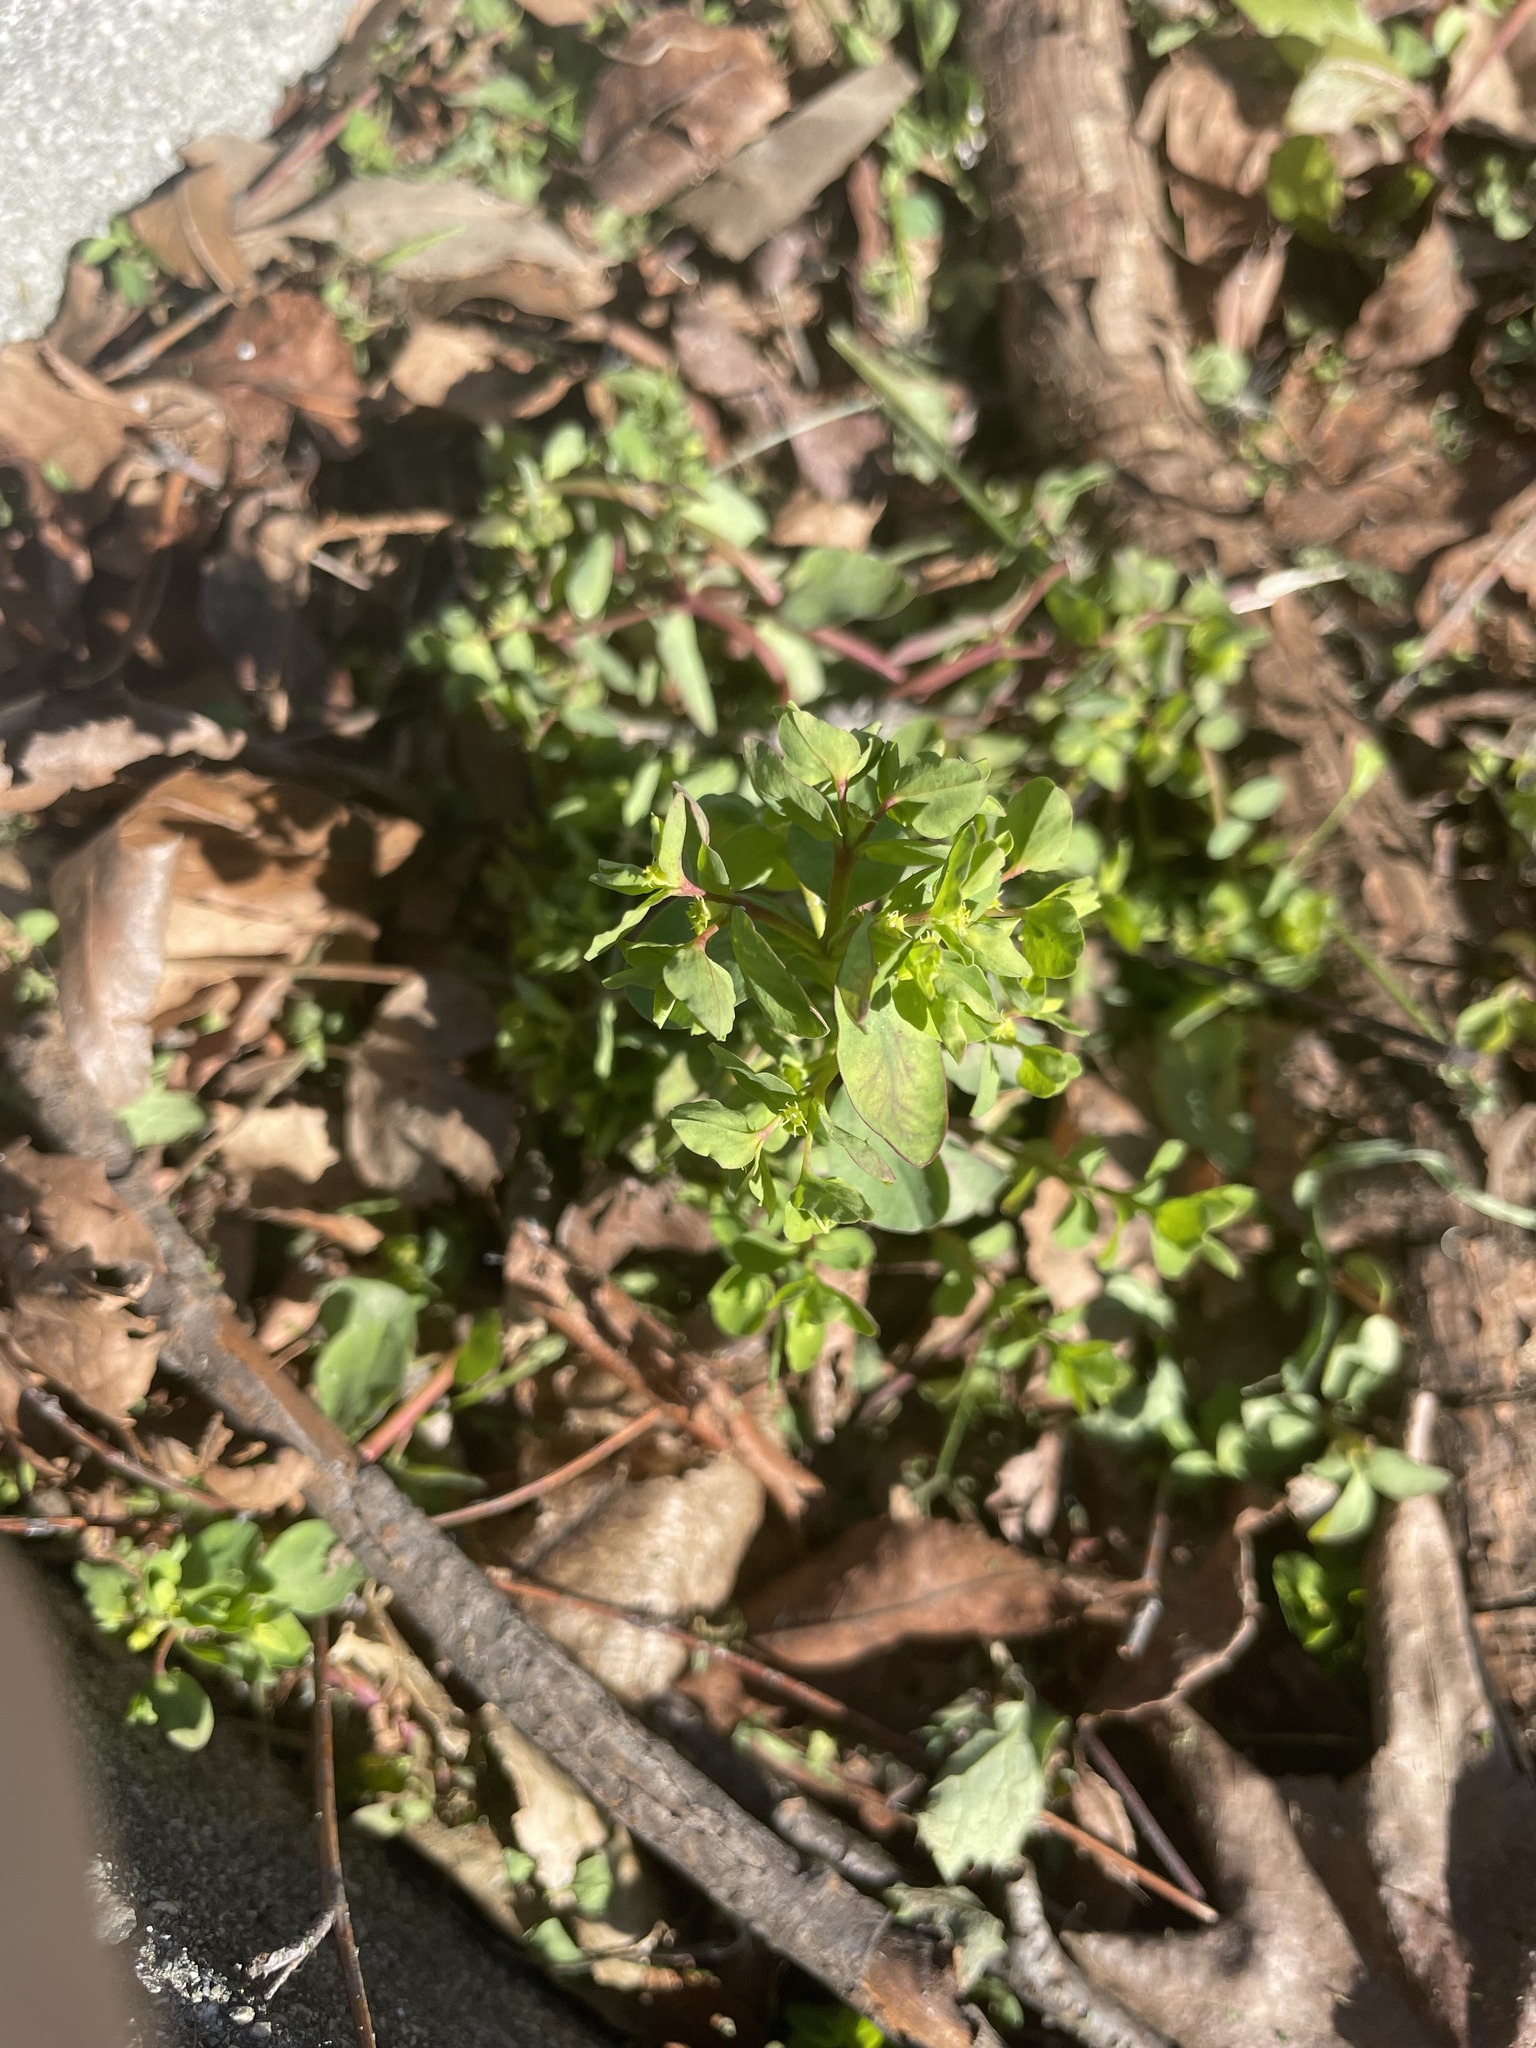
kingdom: Plantae
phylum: Tracheophyta
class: Magnoliopsida
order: Malpighiales
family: Euphorbiaceae
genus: Euphorbia
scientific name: Euphorbia peplus
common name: Petty spurge
